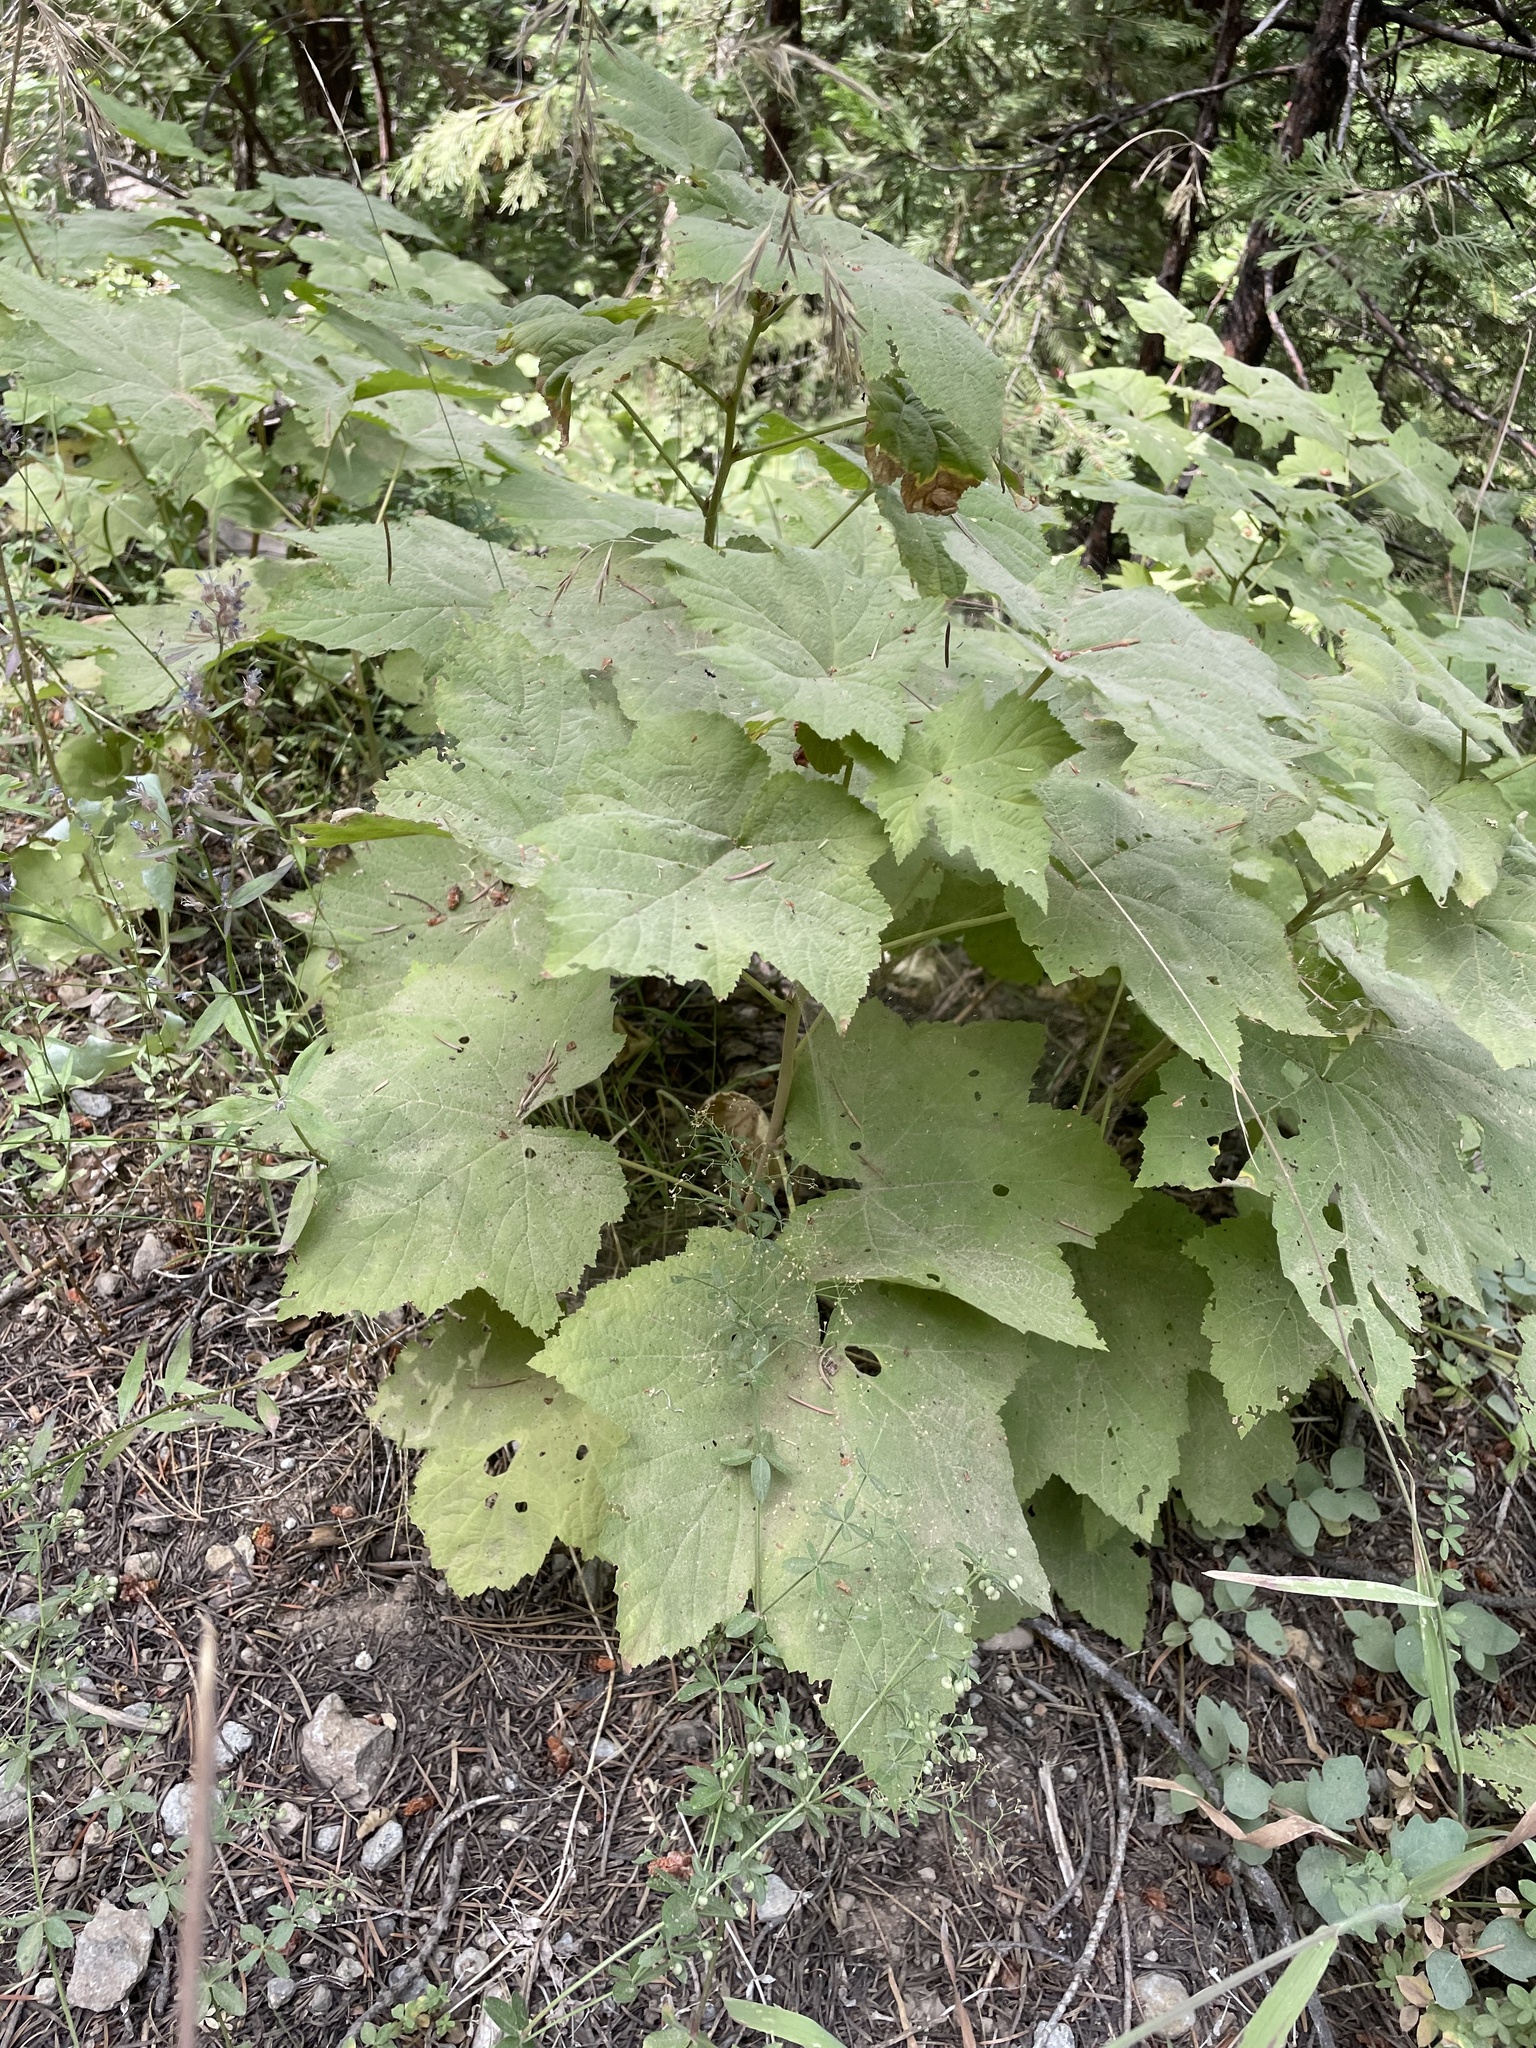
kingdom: Plantae
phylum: Tracheophyta
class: Magnoliopsida
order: Rosales
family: Rosaceae
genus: Rubus
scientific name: Rubus parviflorus
